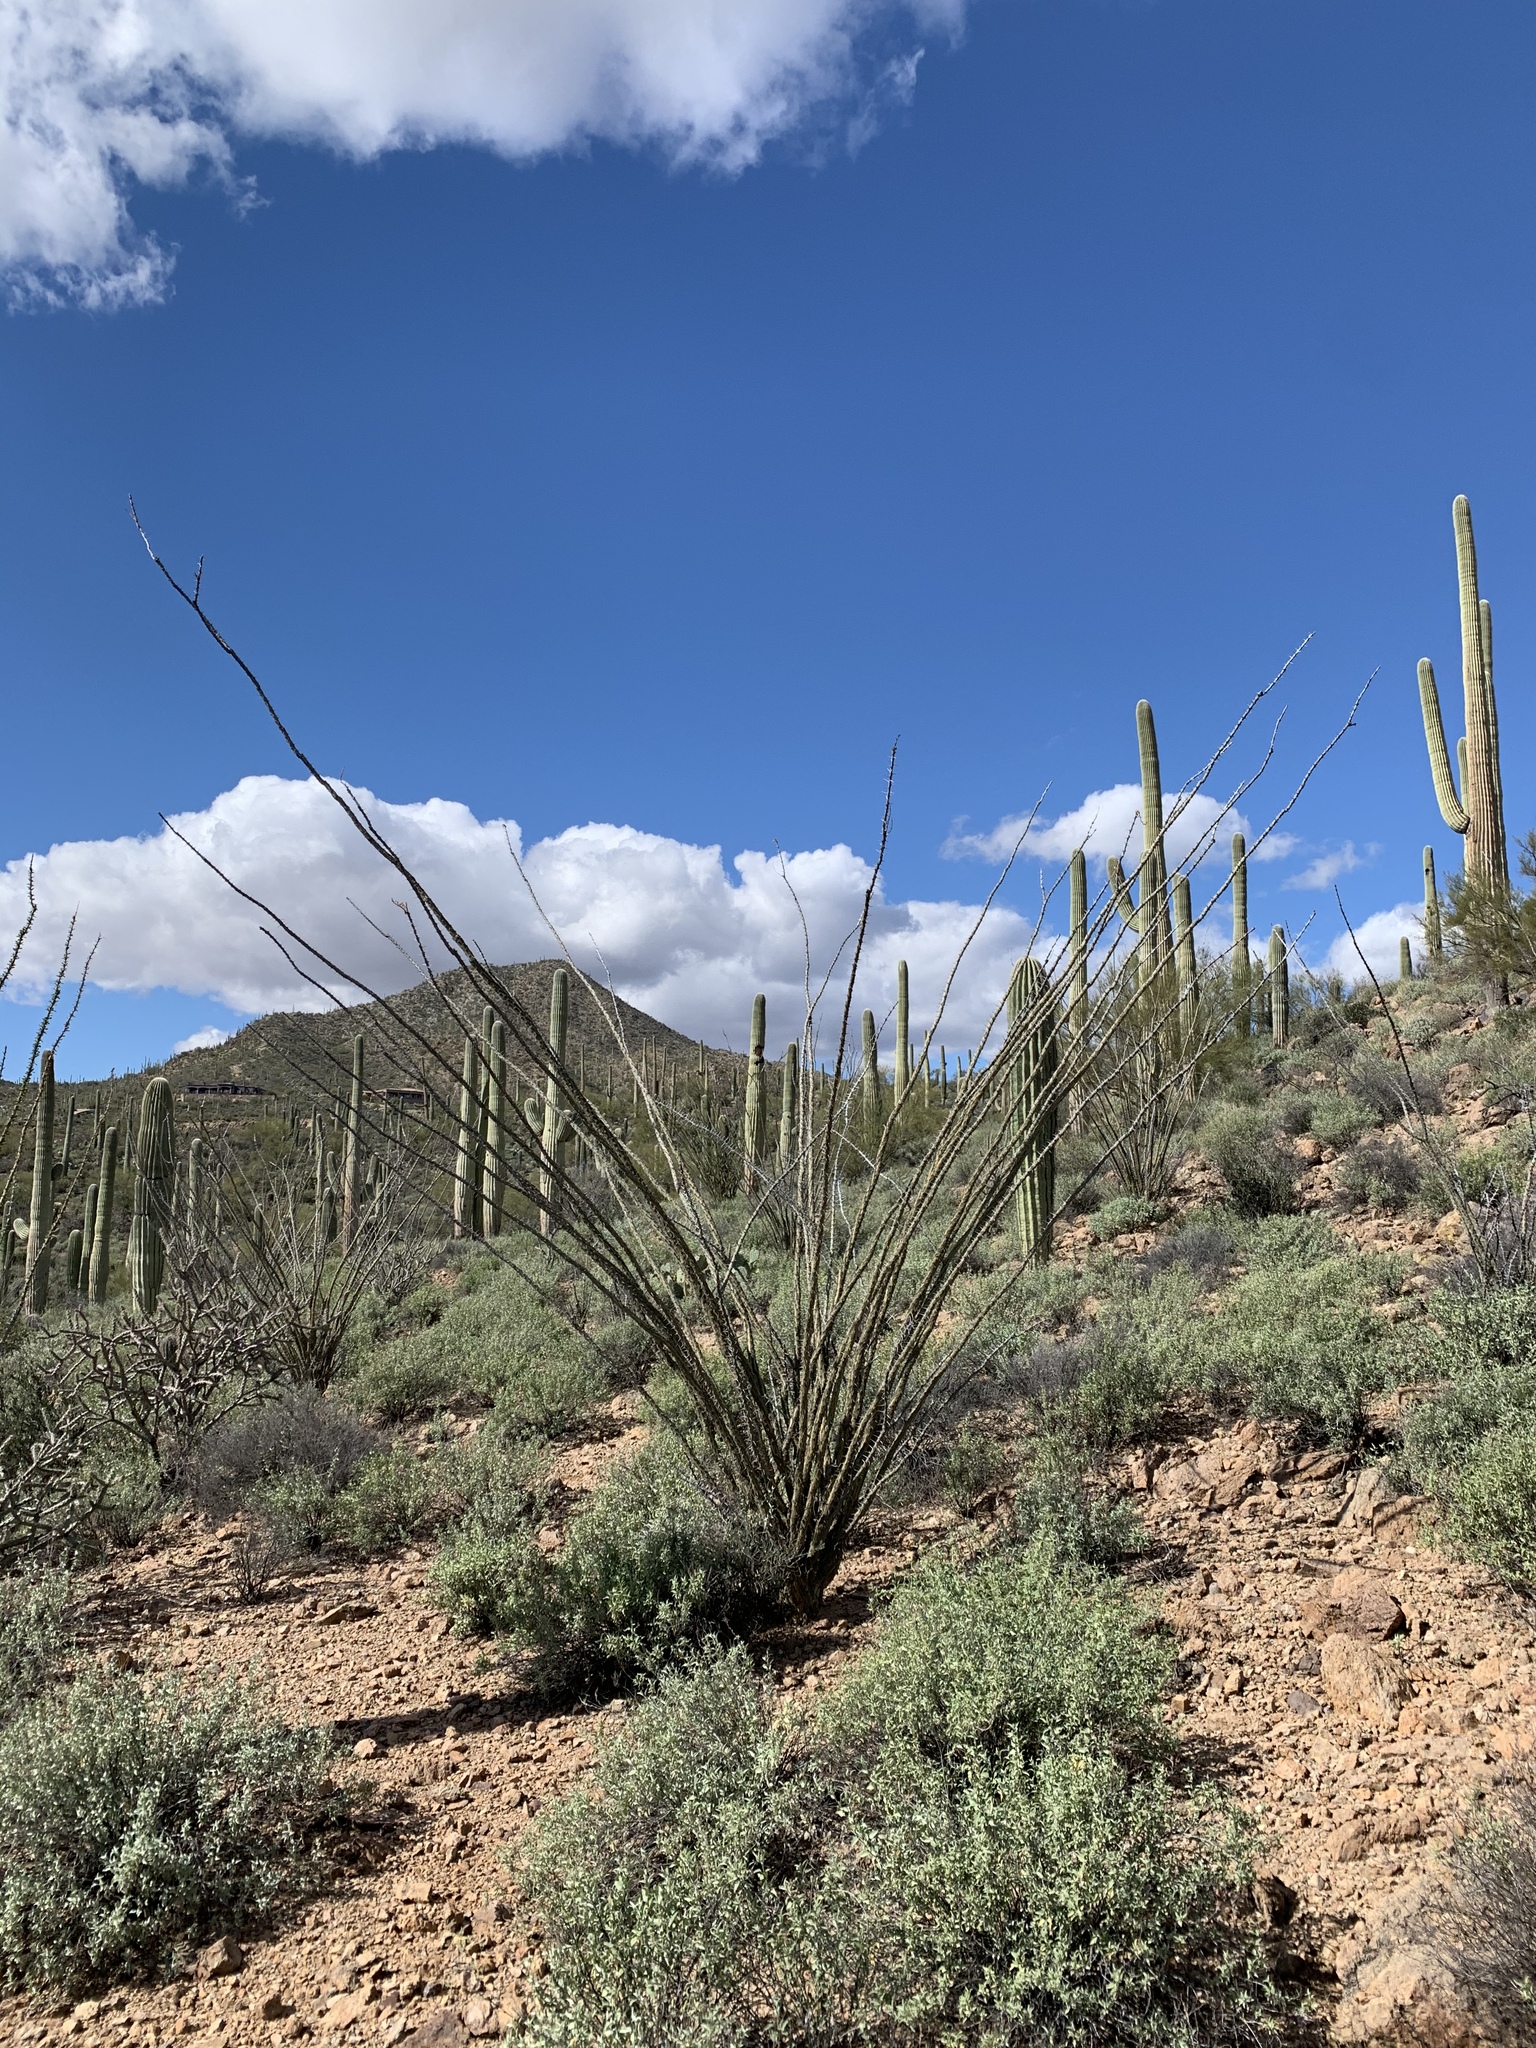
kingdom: Plantae
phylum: Tracheophyta
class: Magnoliopsida
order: Ericales
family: Fouquieriaceae
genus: Fouquieria
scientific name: Fouquieria splendens
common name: Vine-cactus
